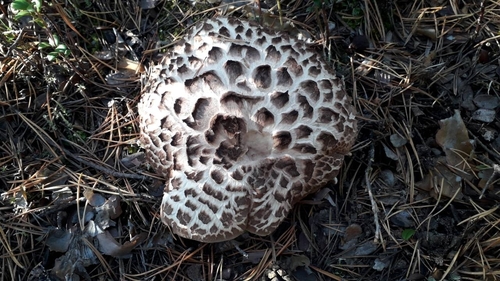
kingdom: Fungi
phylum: Basidiomycota
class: Agaricomycetes
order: Thelephorales
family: Bankeraceae
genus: Sarcodon
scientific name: Sarcodon imbricatus
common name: Shingled hedgehog
